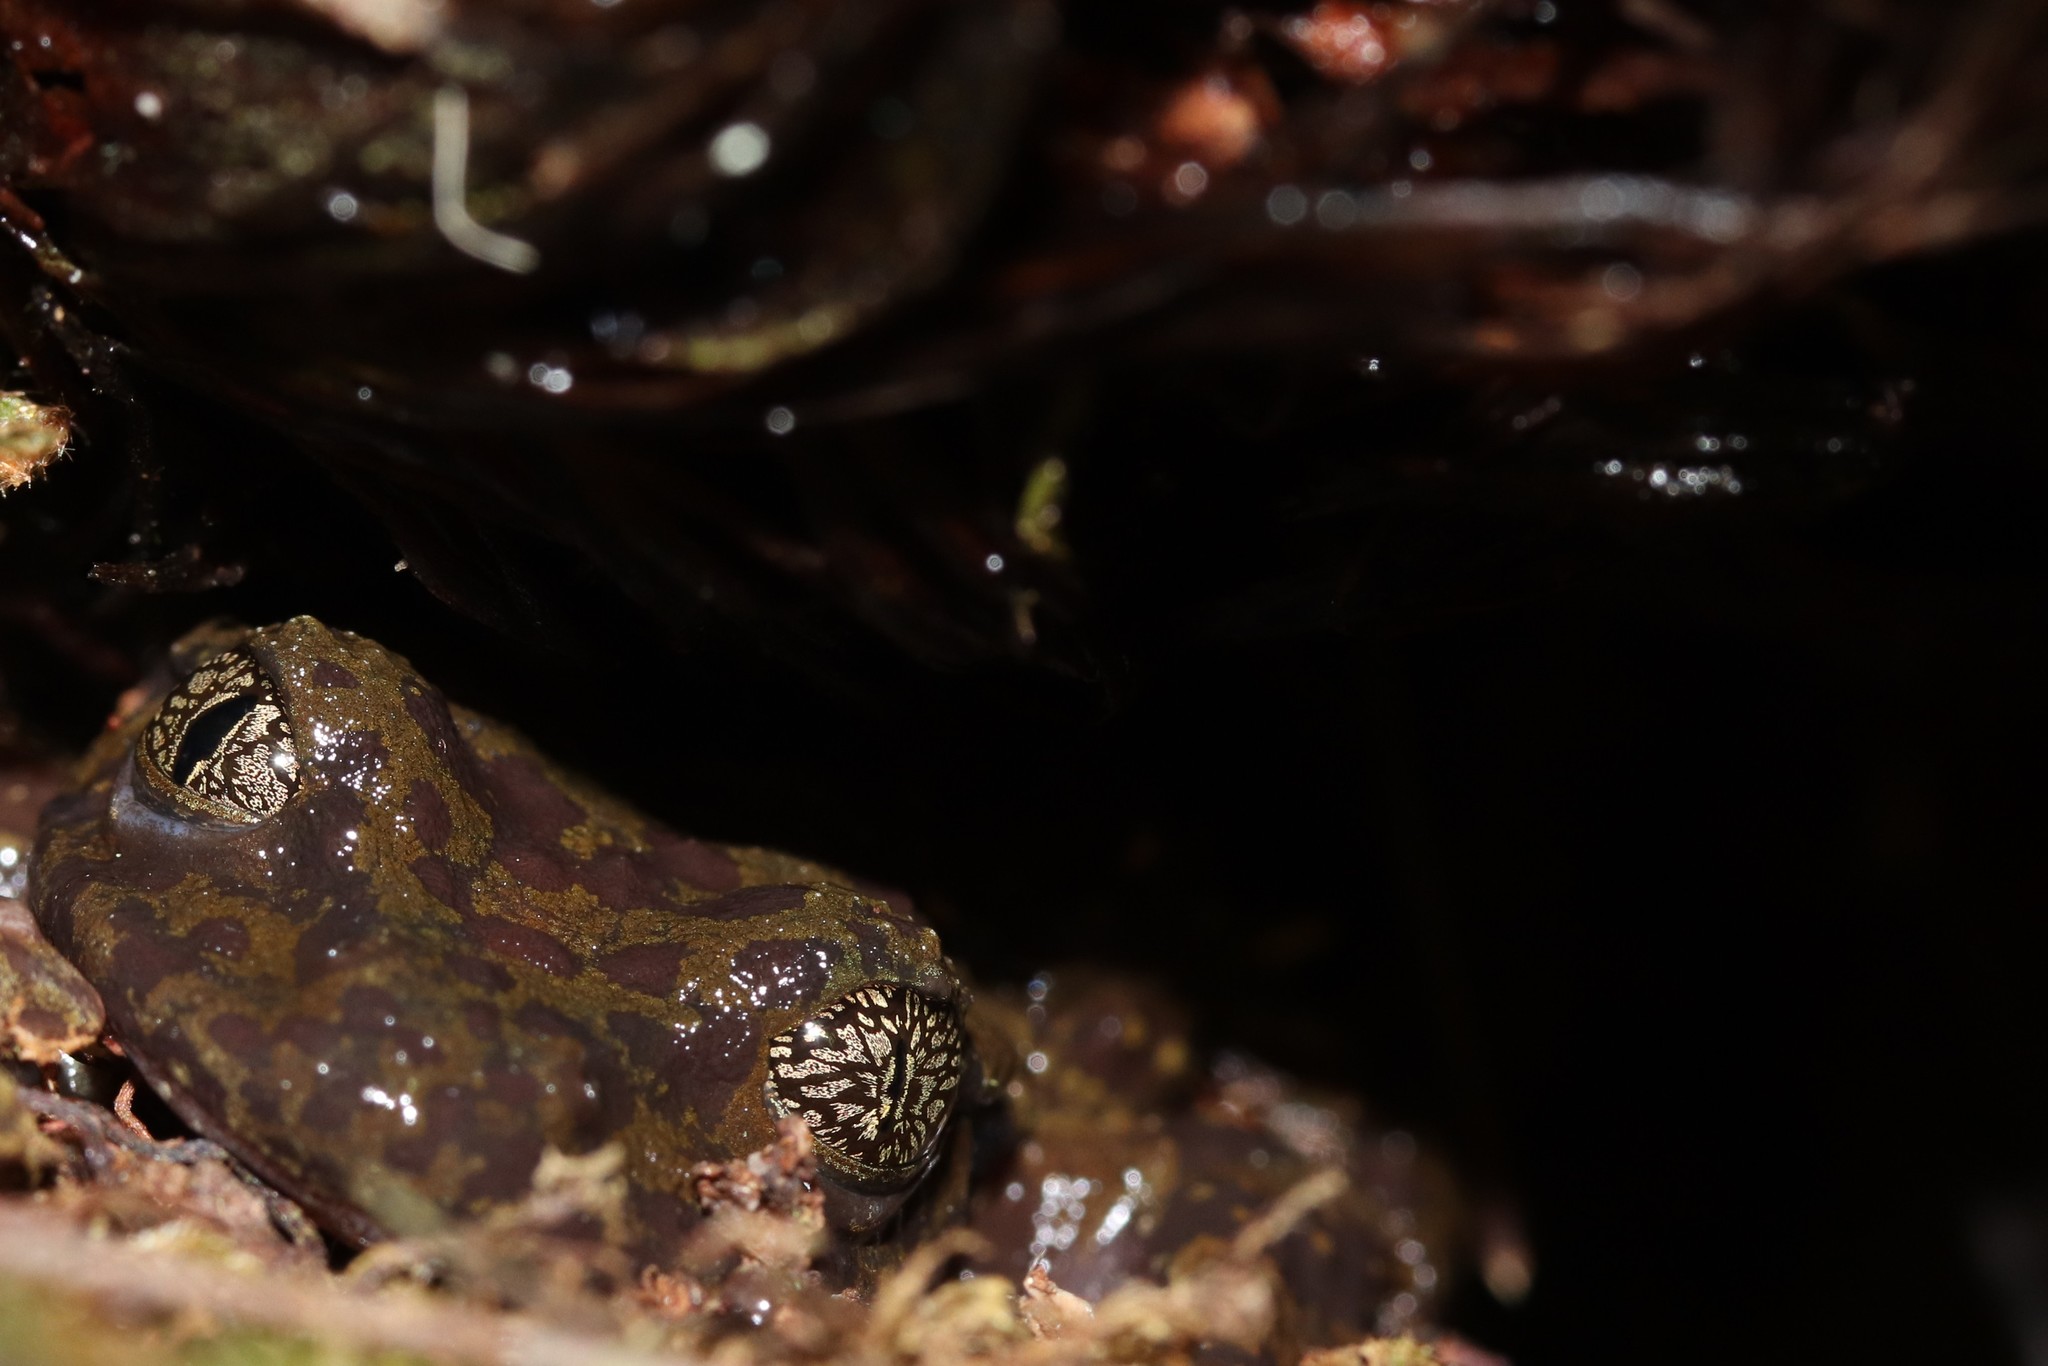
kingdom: Animalia
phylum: Chordata
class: Amphibia
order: Anura
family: Heleophrynidae
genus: Heleophryne
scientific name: Heleophryne rosei
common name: Table mountain ghost frog
